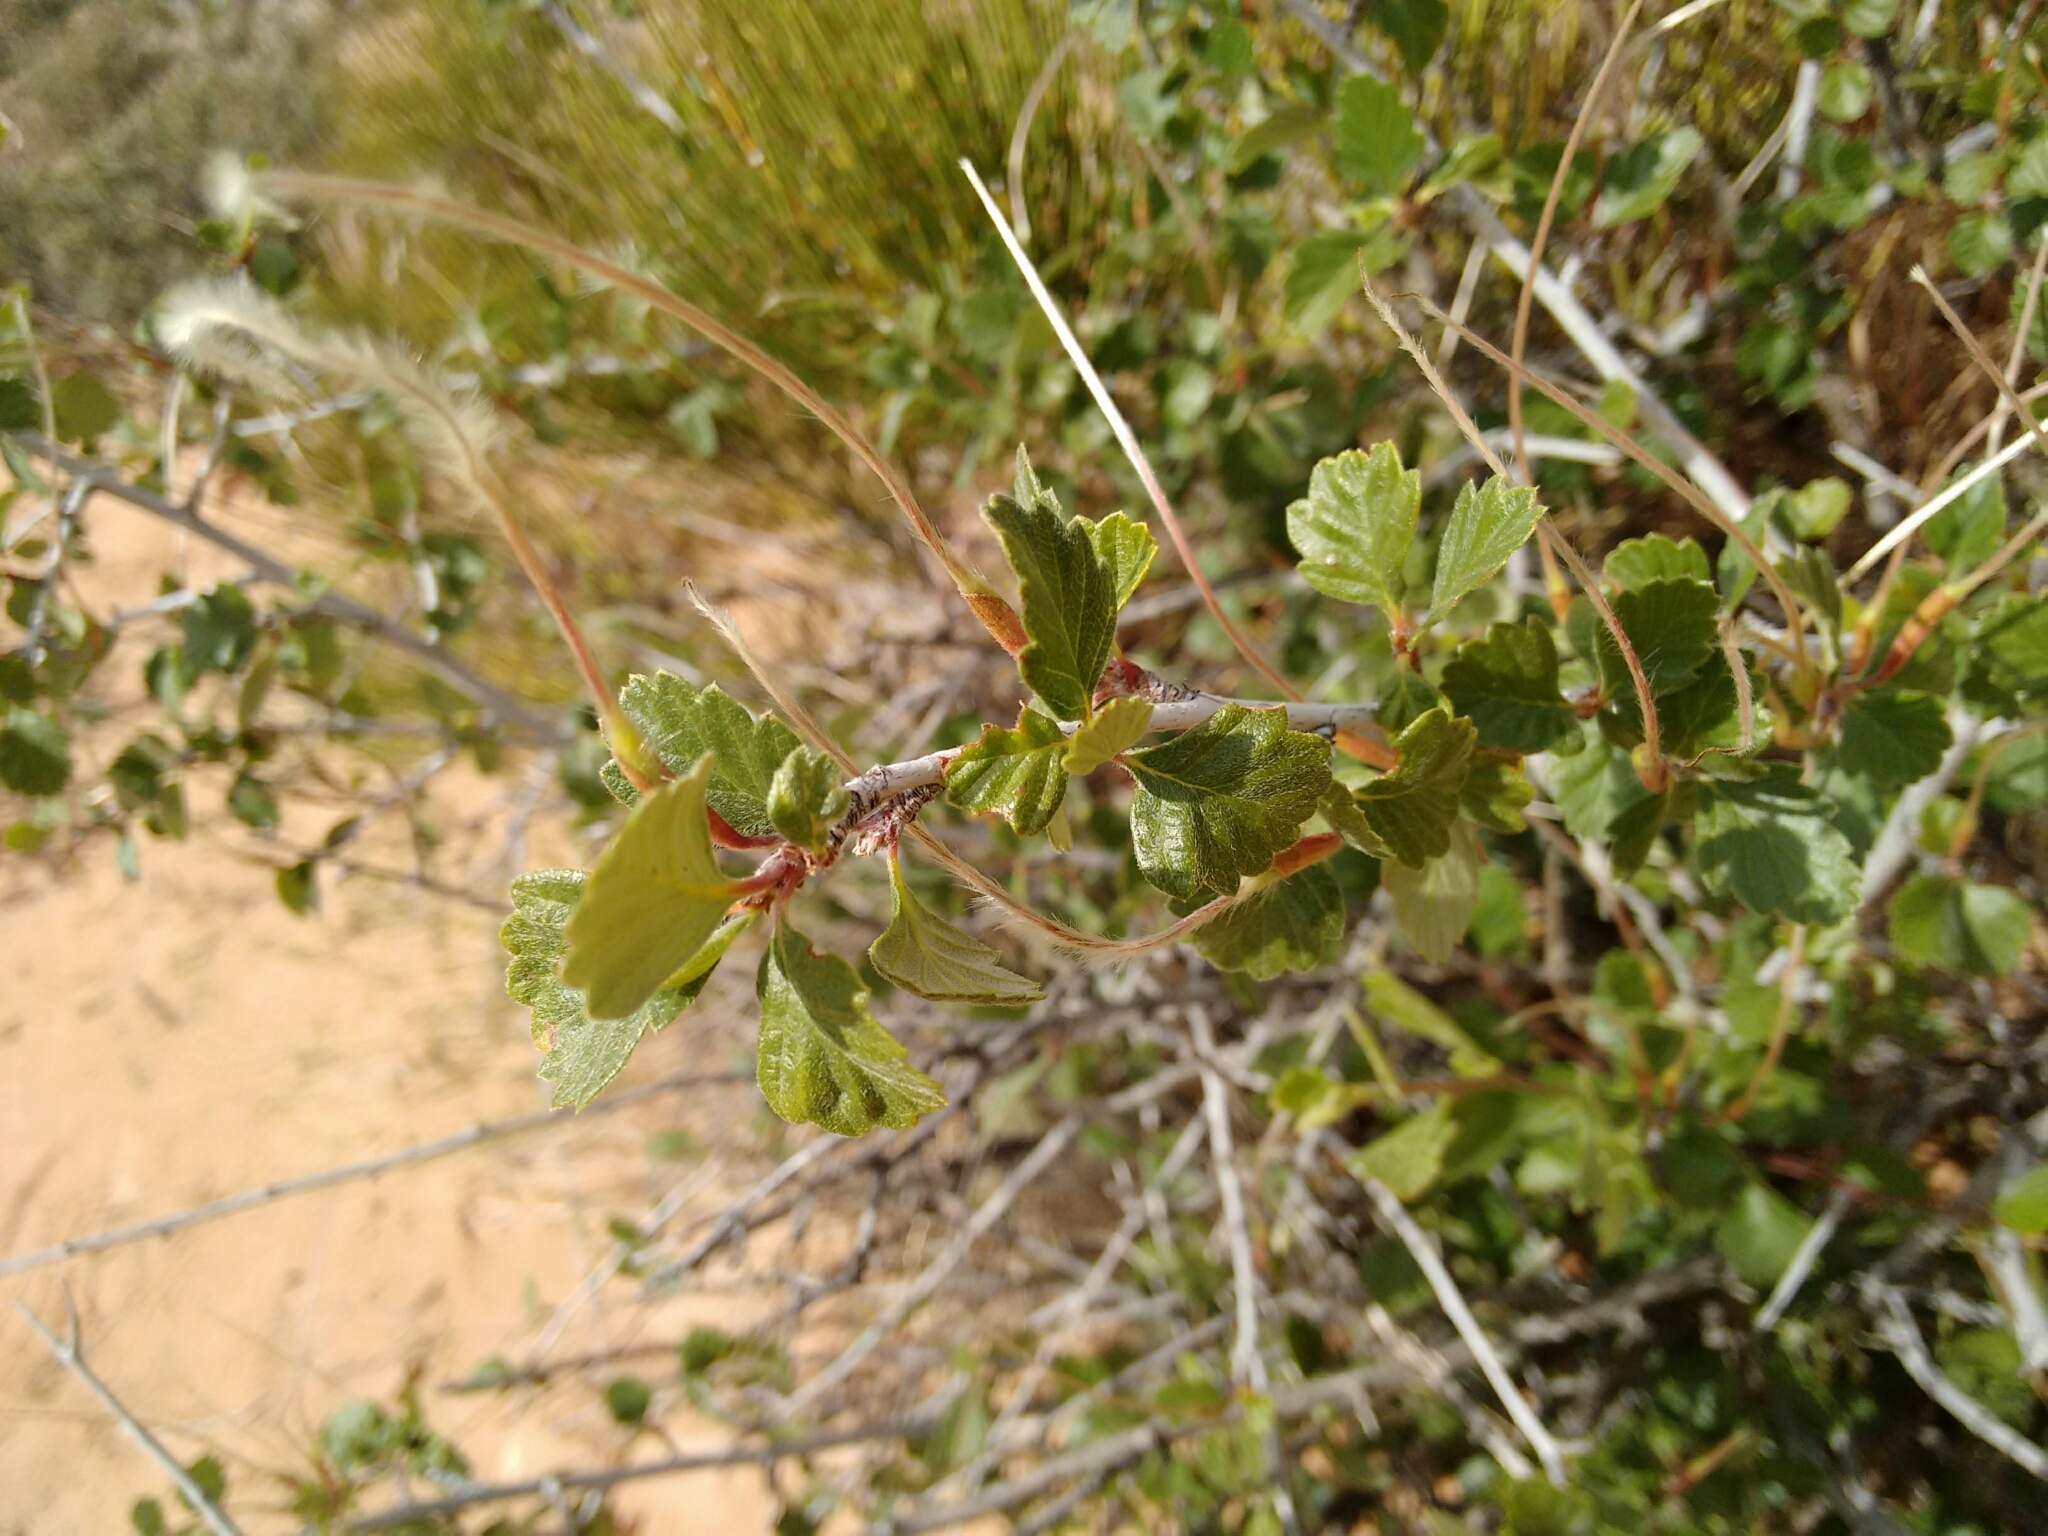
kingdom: Plantae
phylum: Tracheophyta
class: Magnoliopsida
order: Rosales
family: Rosaceae
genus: Cercocarpus
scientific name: Cercocarpus montanus
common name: Alder-leaf cercocarpus
